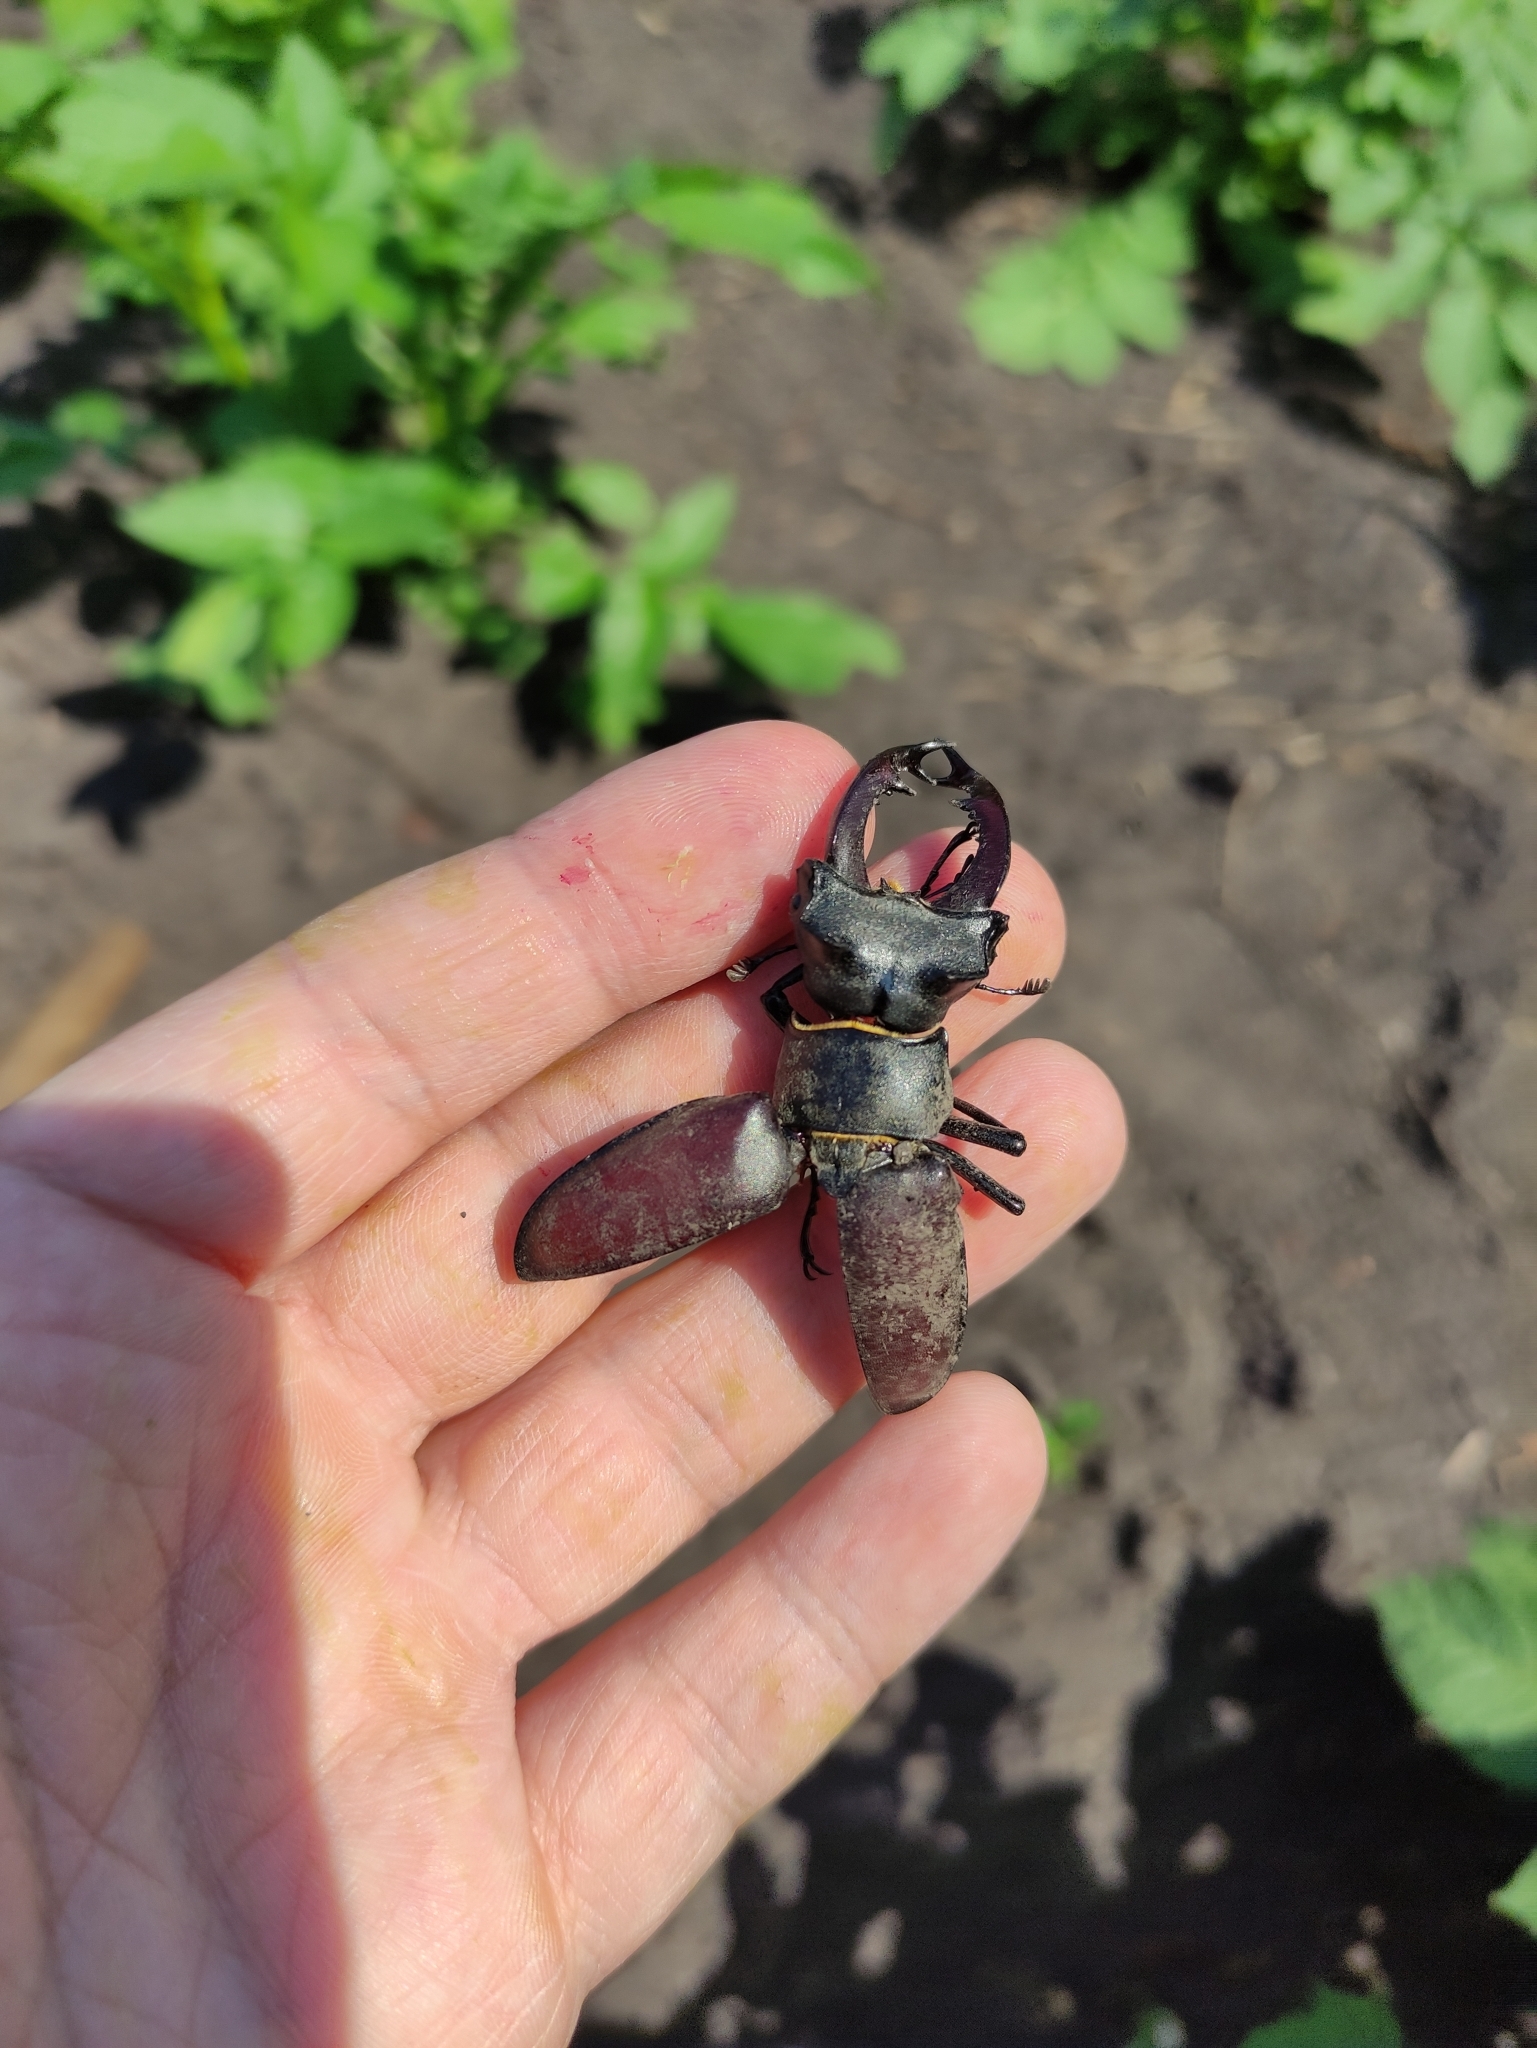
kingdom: Animalia
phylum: Arthropoda
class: Insecta
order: Coleoptera
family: Lucanidae
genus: Lucanus
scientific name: Lucanus cervus
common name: Stag beetle
